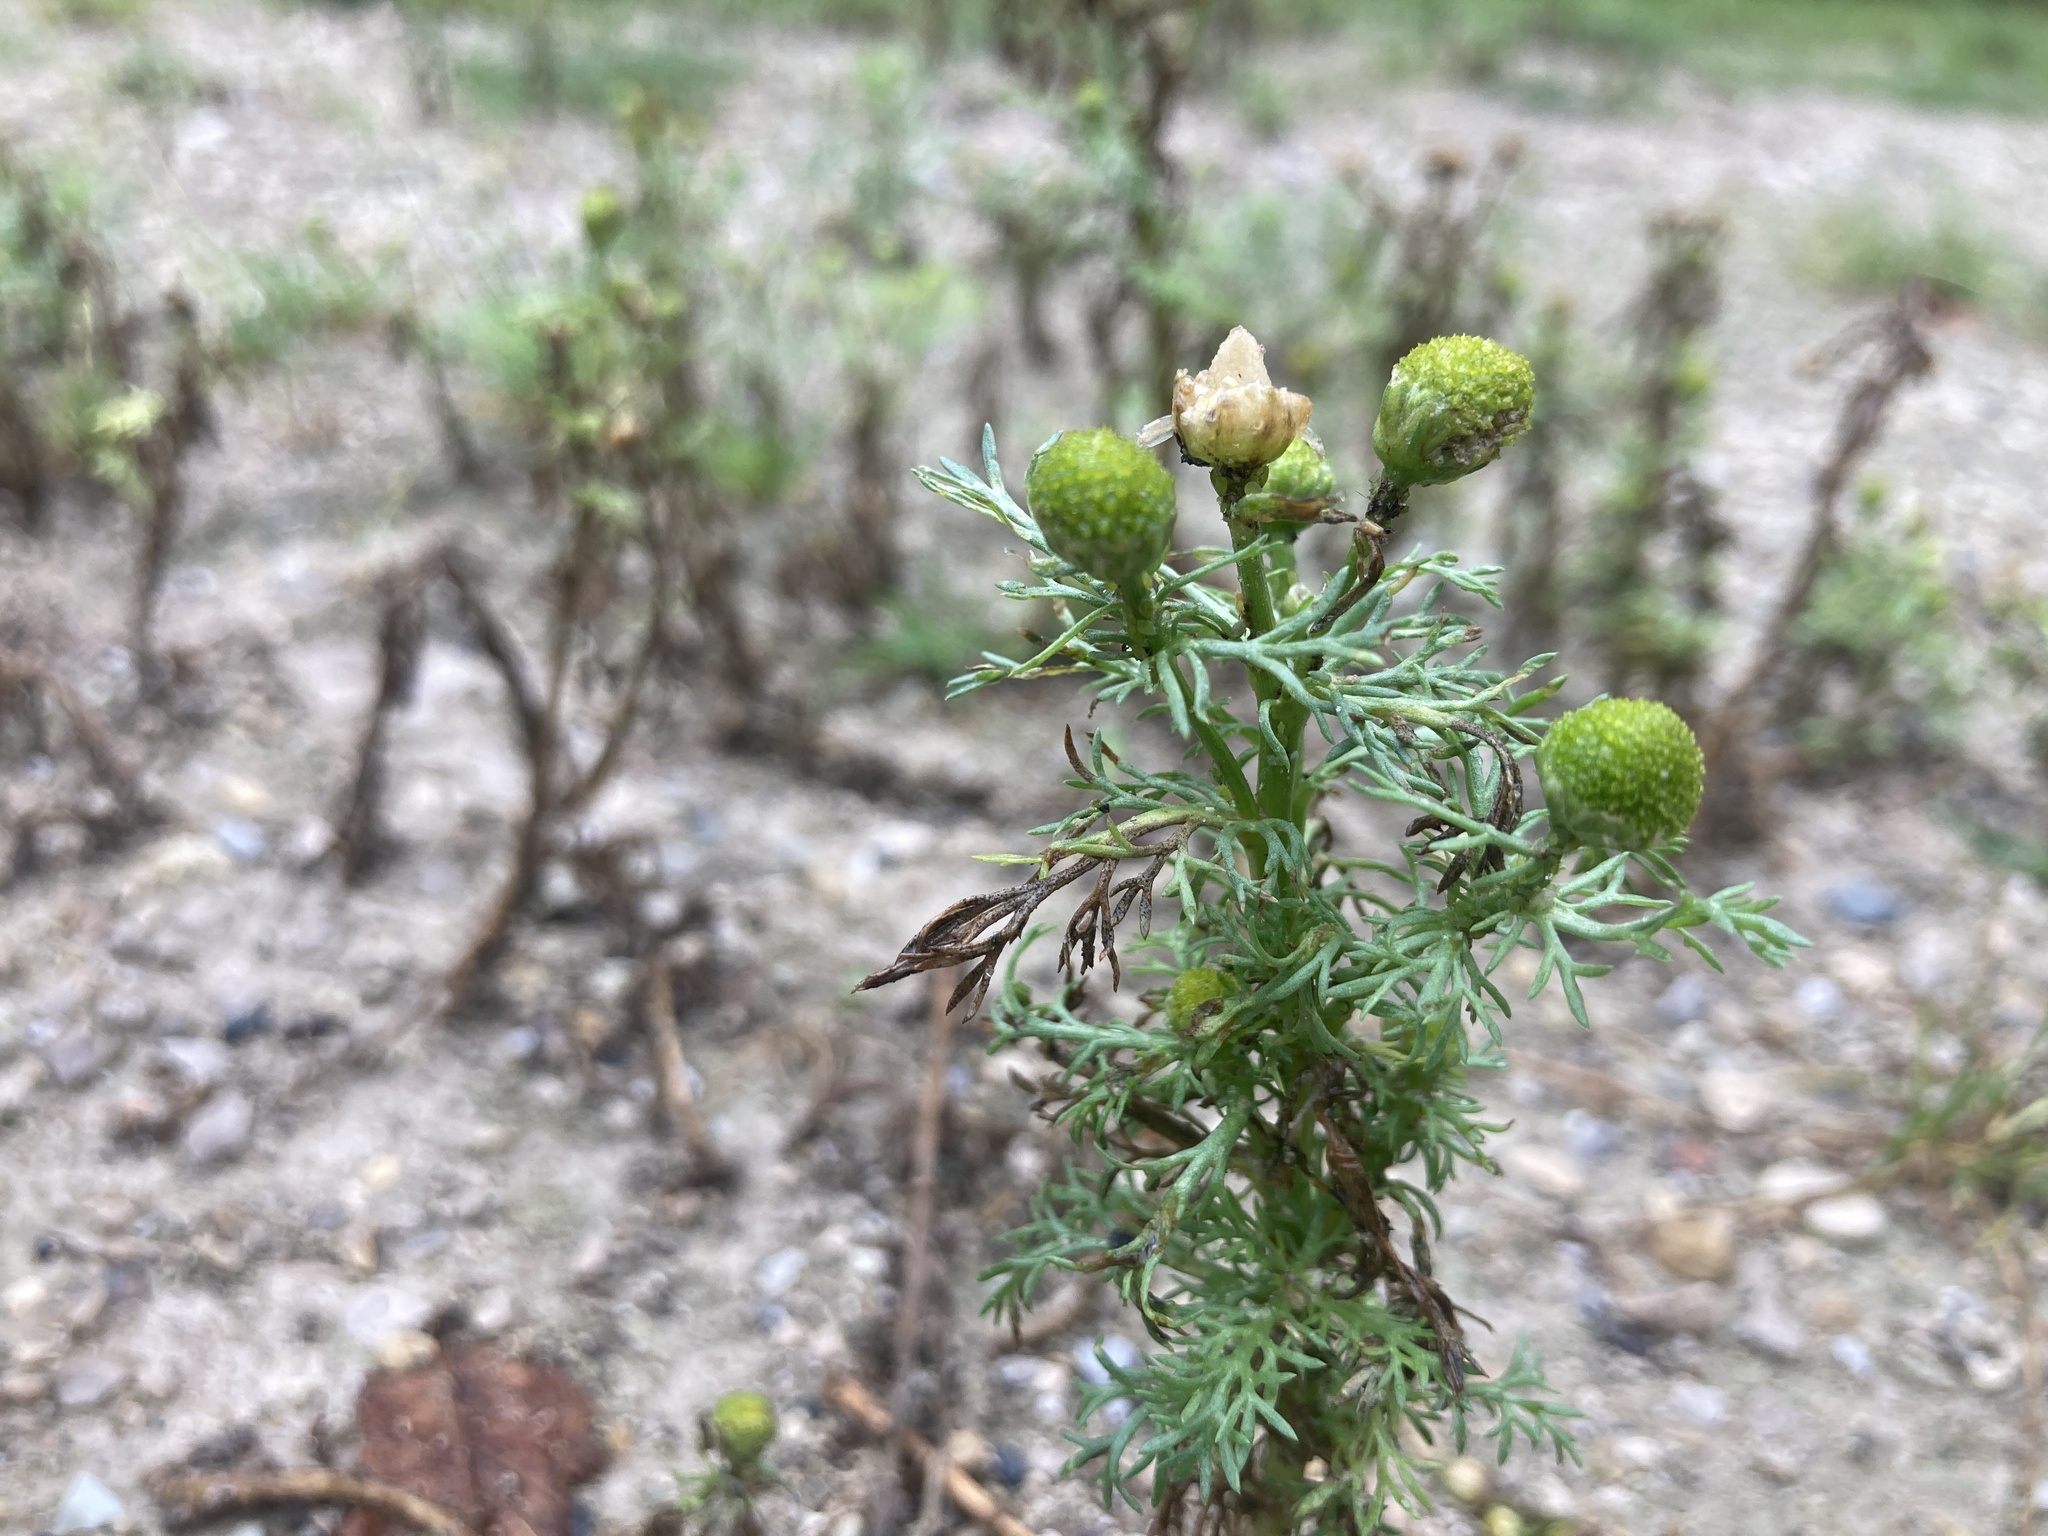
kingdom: Plantae
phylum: Tracheophyta
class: Magnoliopsida
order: Asterales
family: Asteraceae
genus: Matricaria
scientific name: Matricaria discoidea
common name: Disc mayweed
